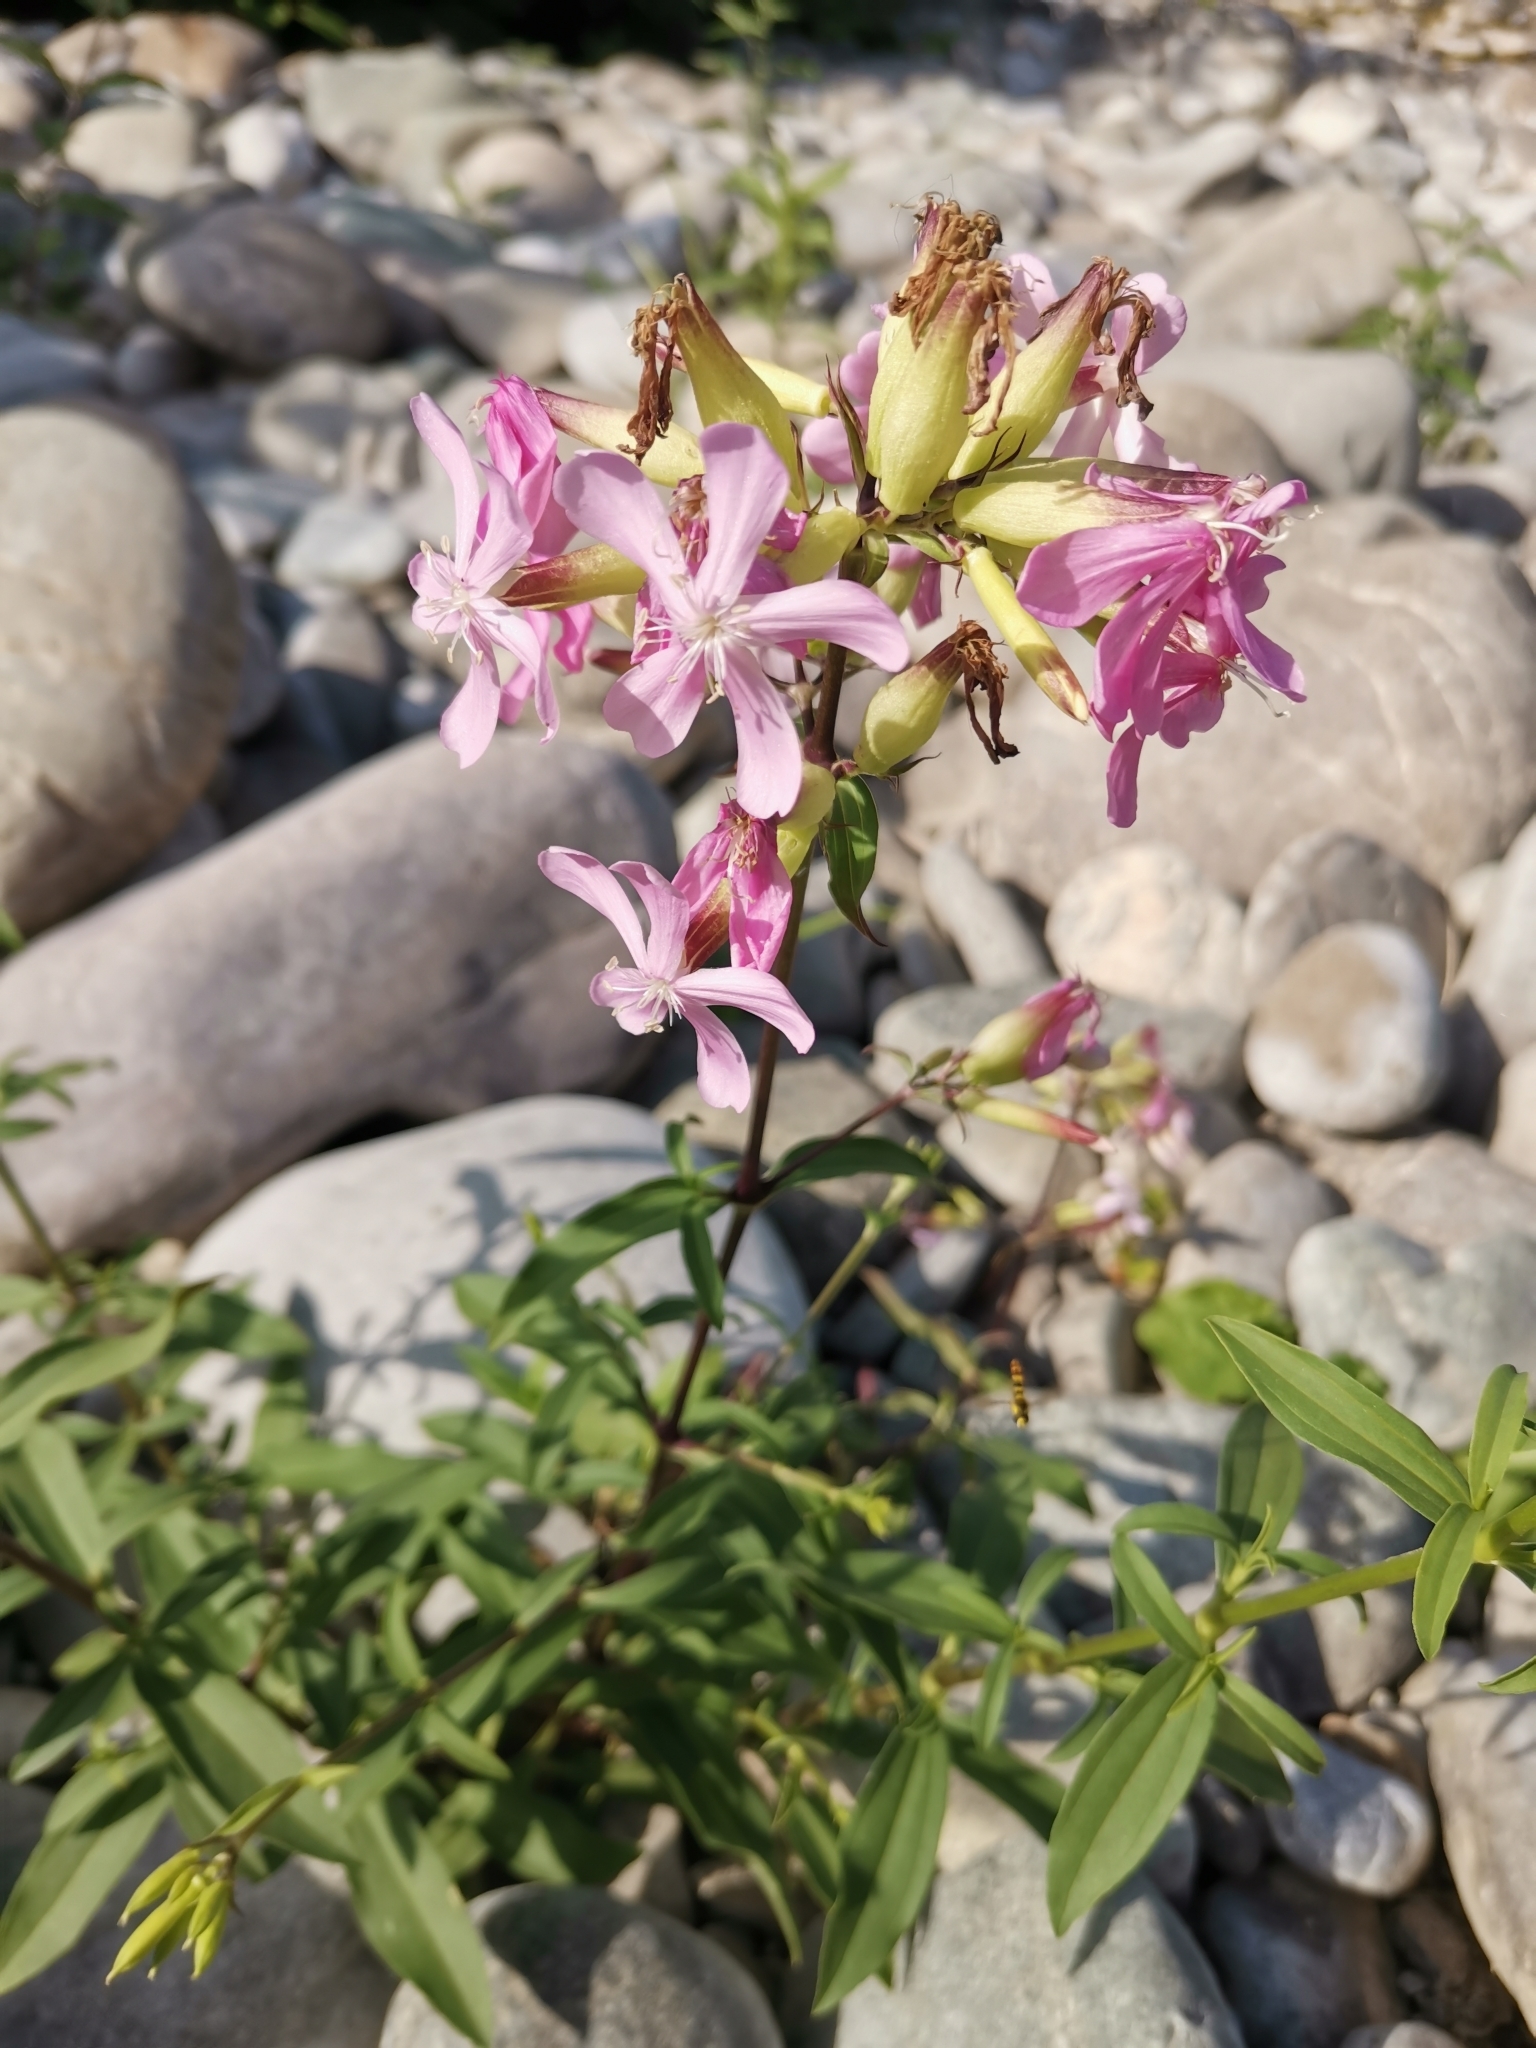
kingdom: Plantae
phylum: Tracheophyta
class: Magnoliopsida
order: Caryophyllales
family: Caryophyllaceae
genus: Saponaria
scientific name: Saponaria officinalis
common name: Soapwort
